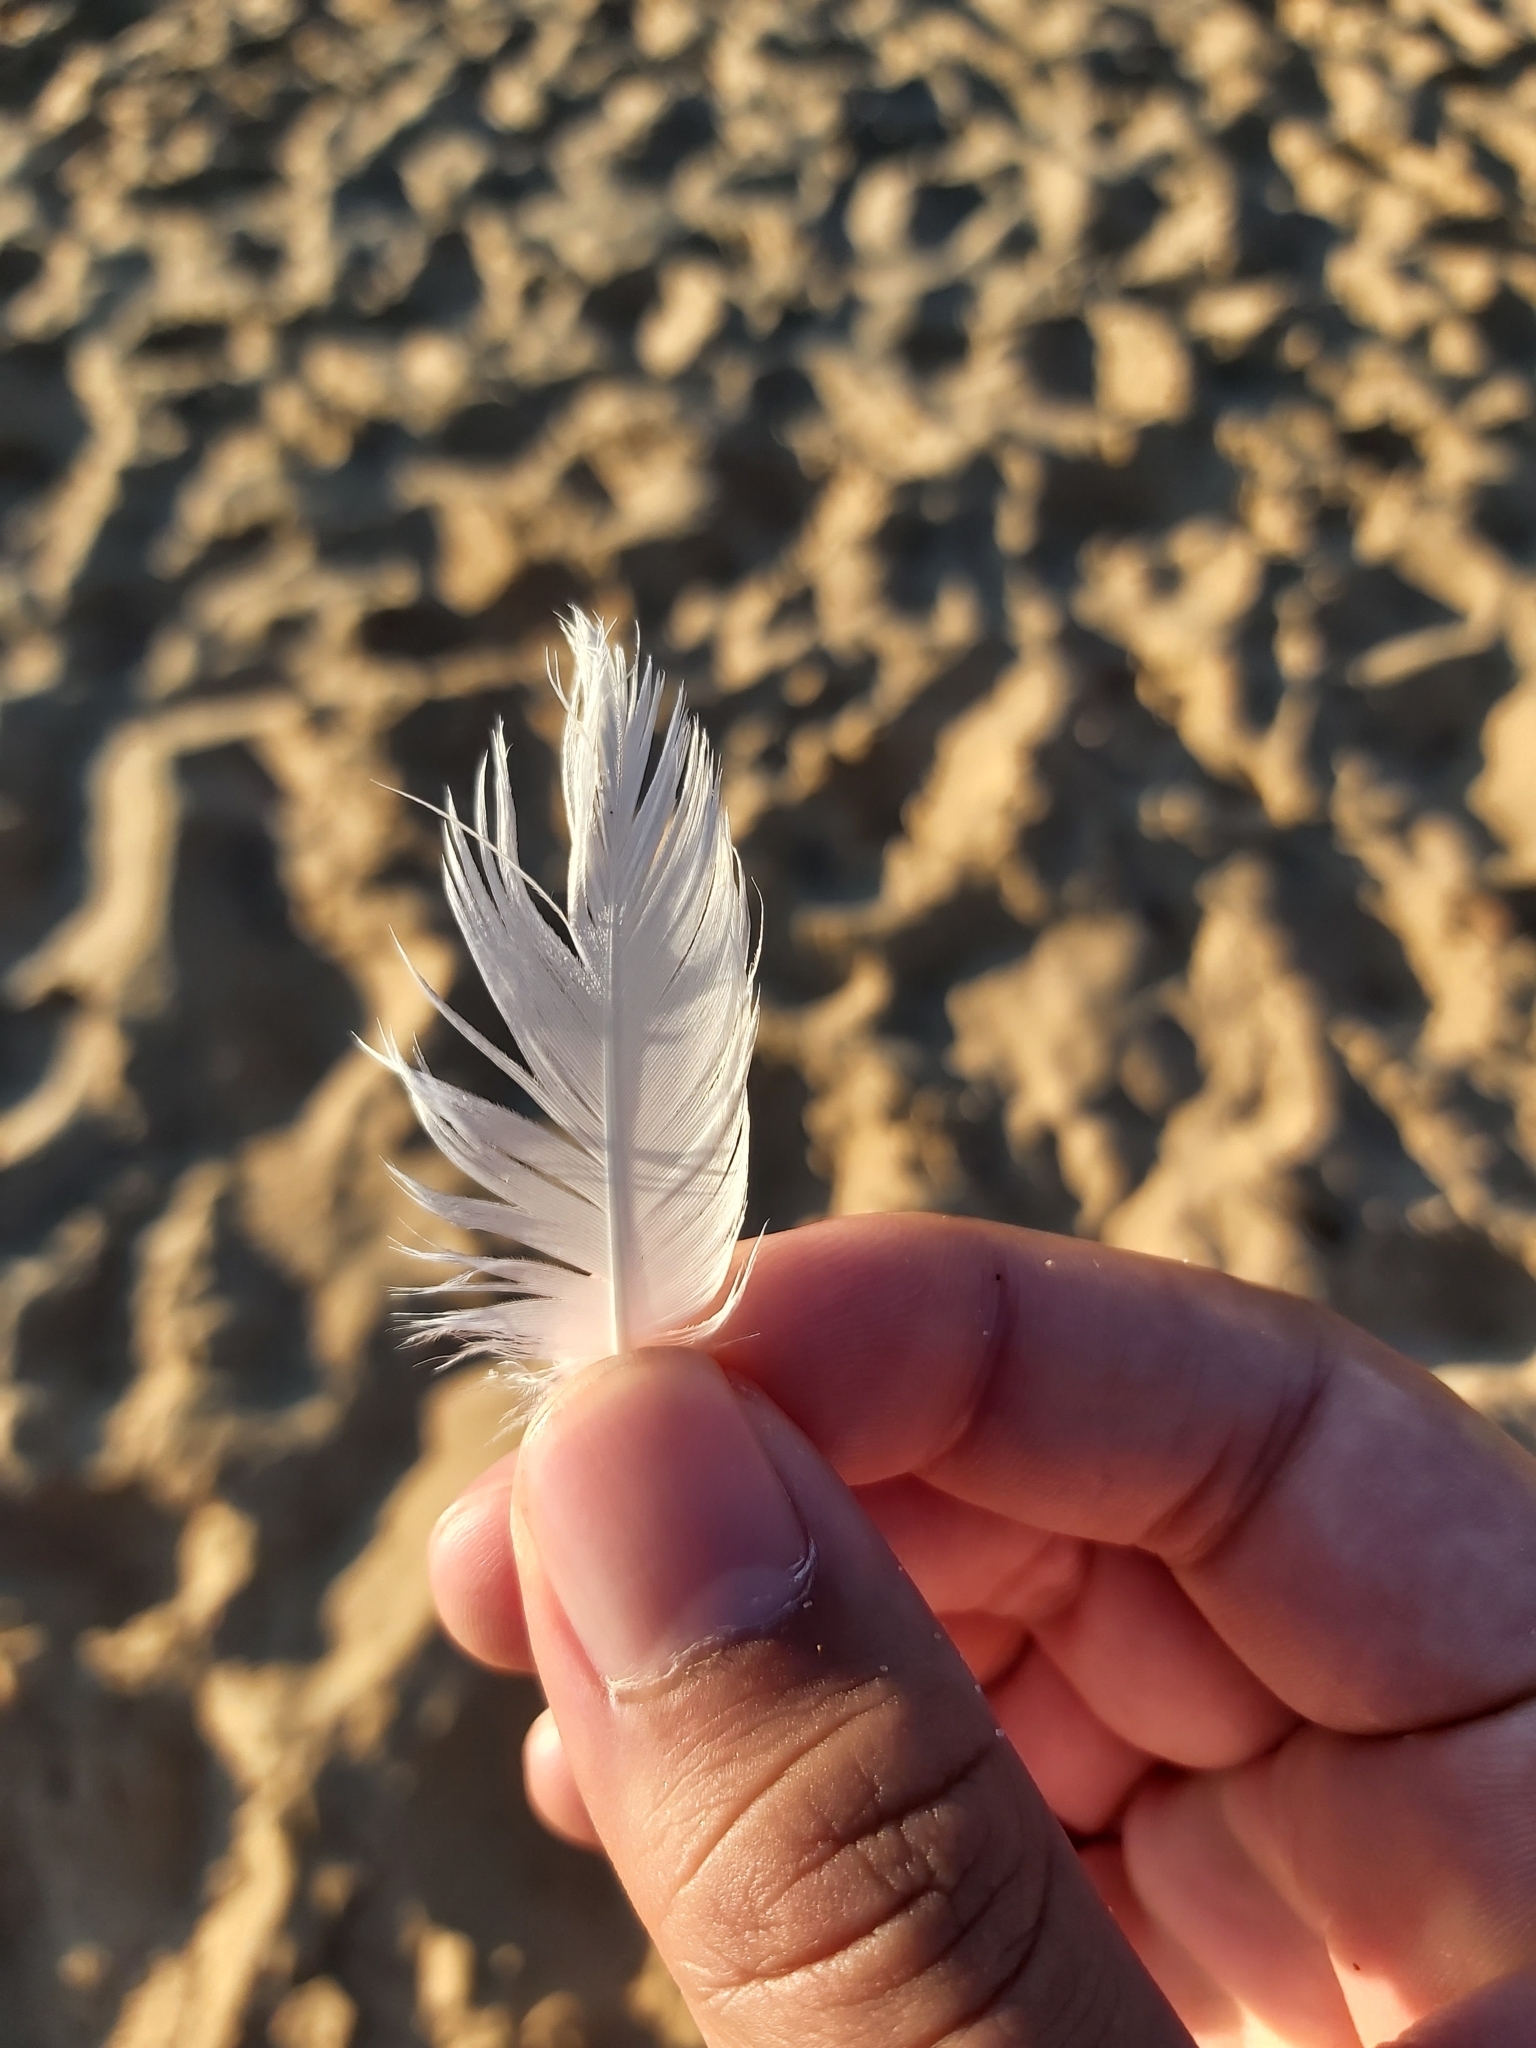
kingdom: Animalia
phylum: Chordata
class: Aves
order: Charadriiformes
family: Laridae
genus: Chroicocephalus
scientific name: Chroicocephalus novaehollandiae
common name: Silver gull
